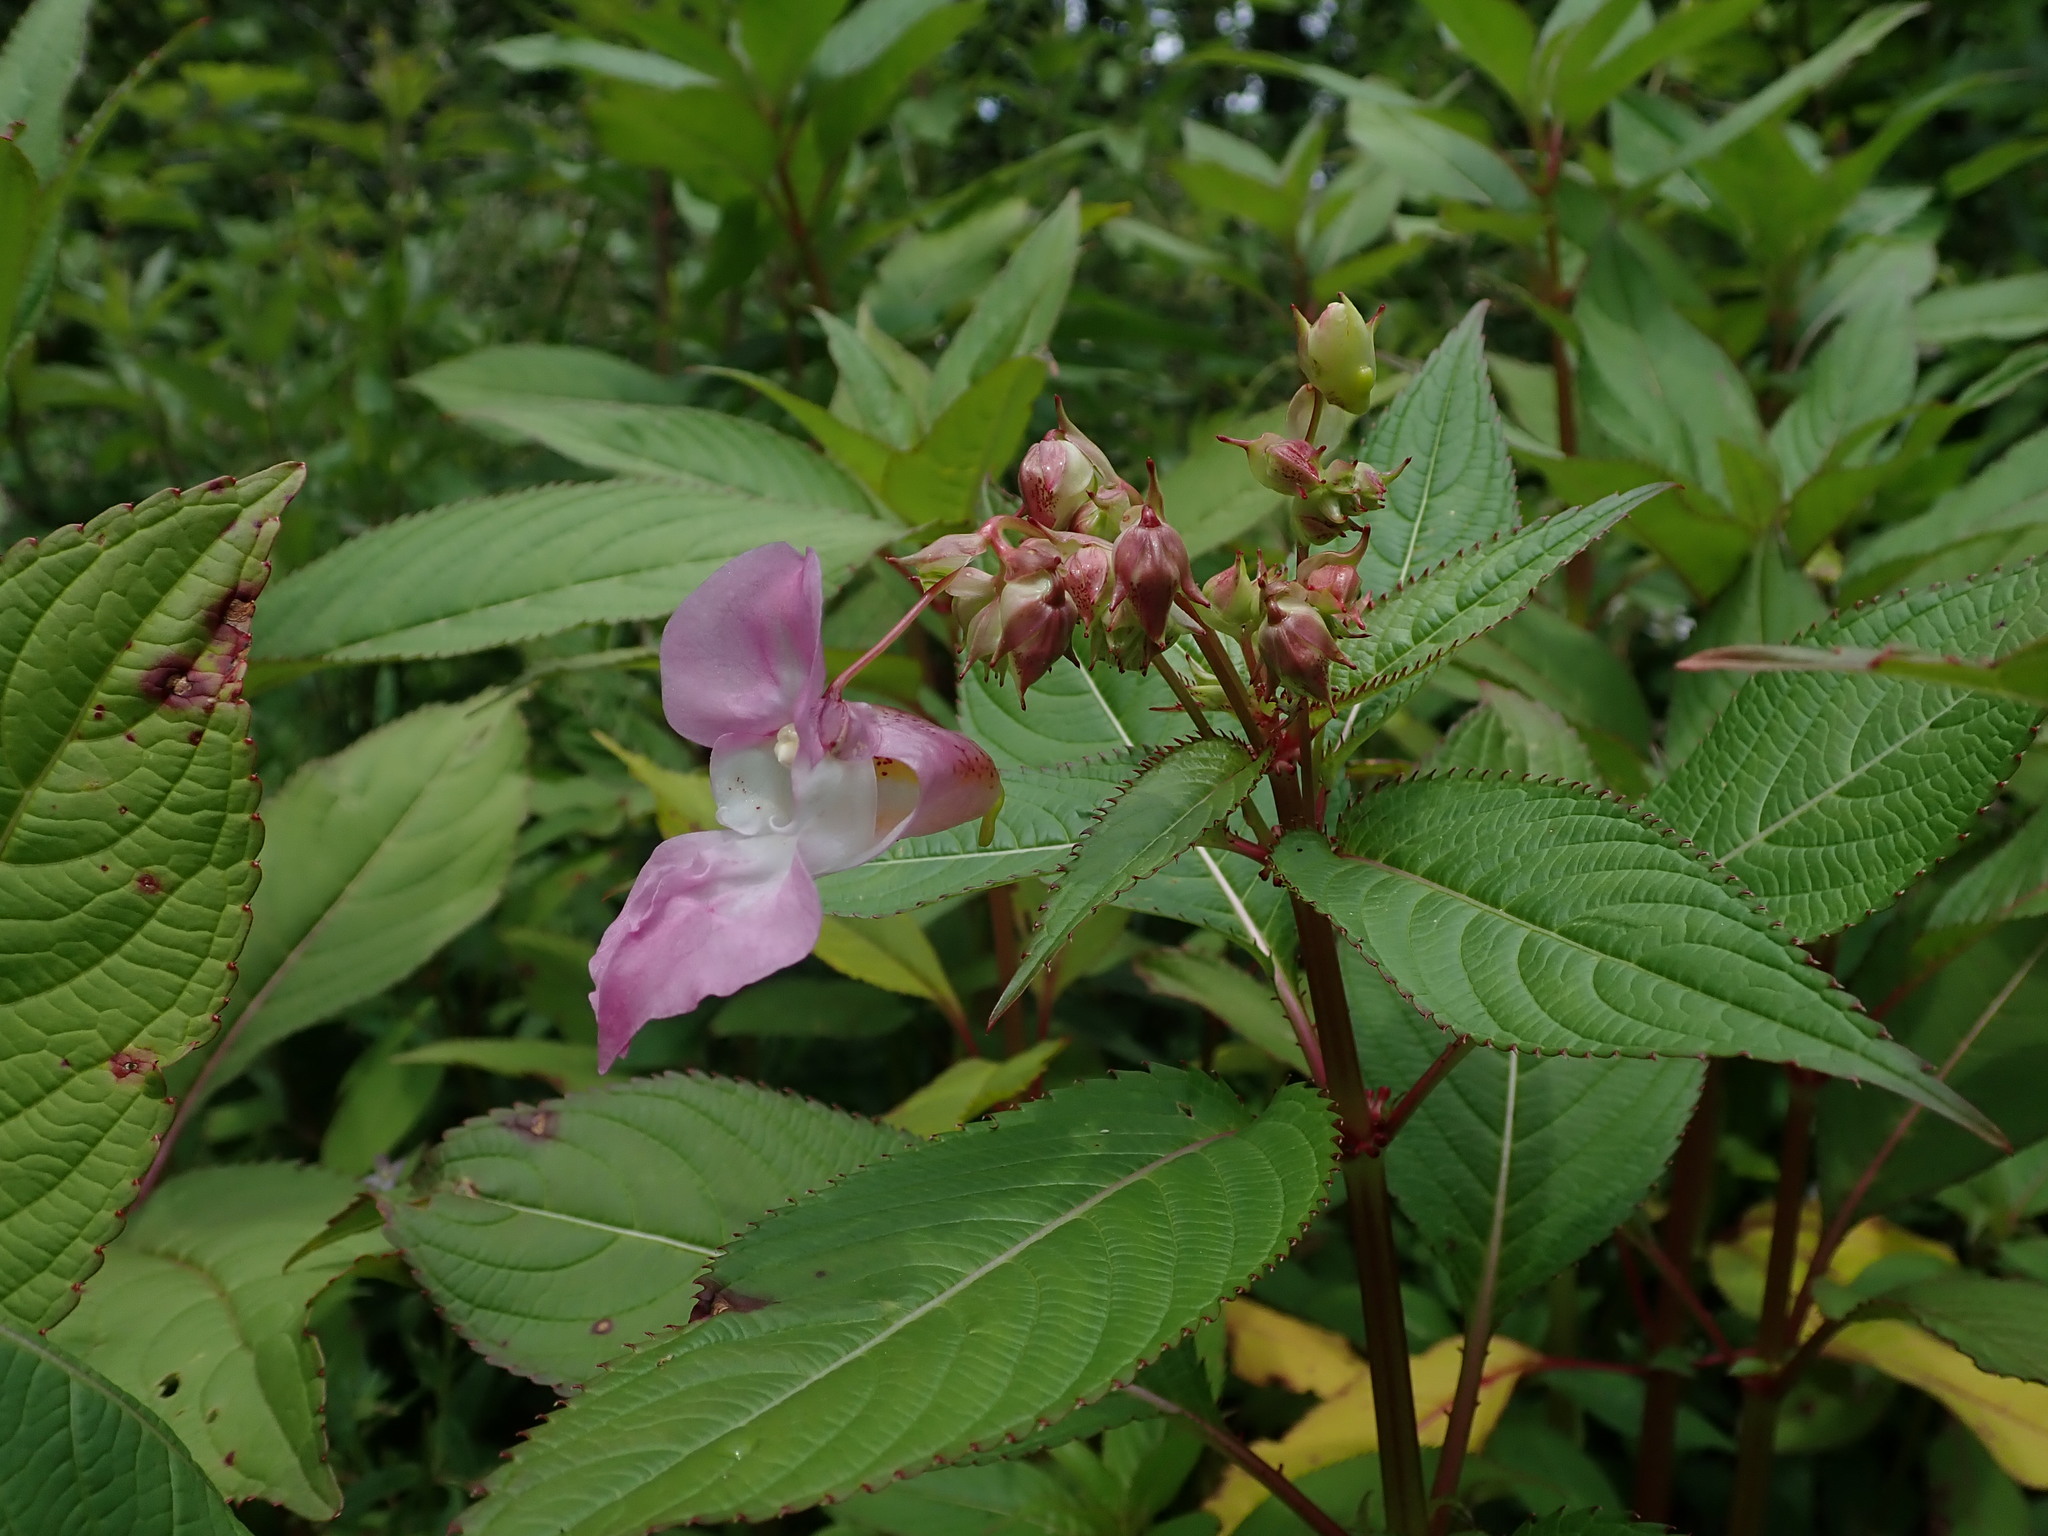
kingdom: Plantae
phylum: Tracheophyta
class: Magnoliopsida
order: Ericales
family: Balsaminaceae
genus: Impatiens
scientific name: Impatiens glandulifera
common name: Himalayan balsam
